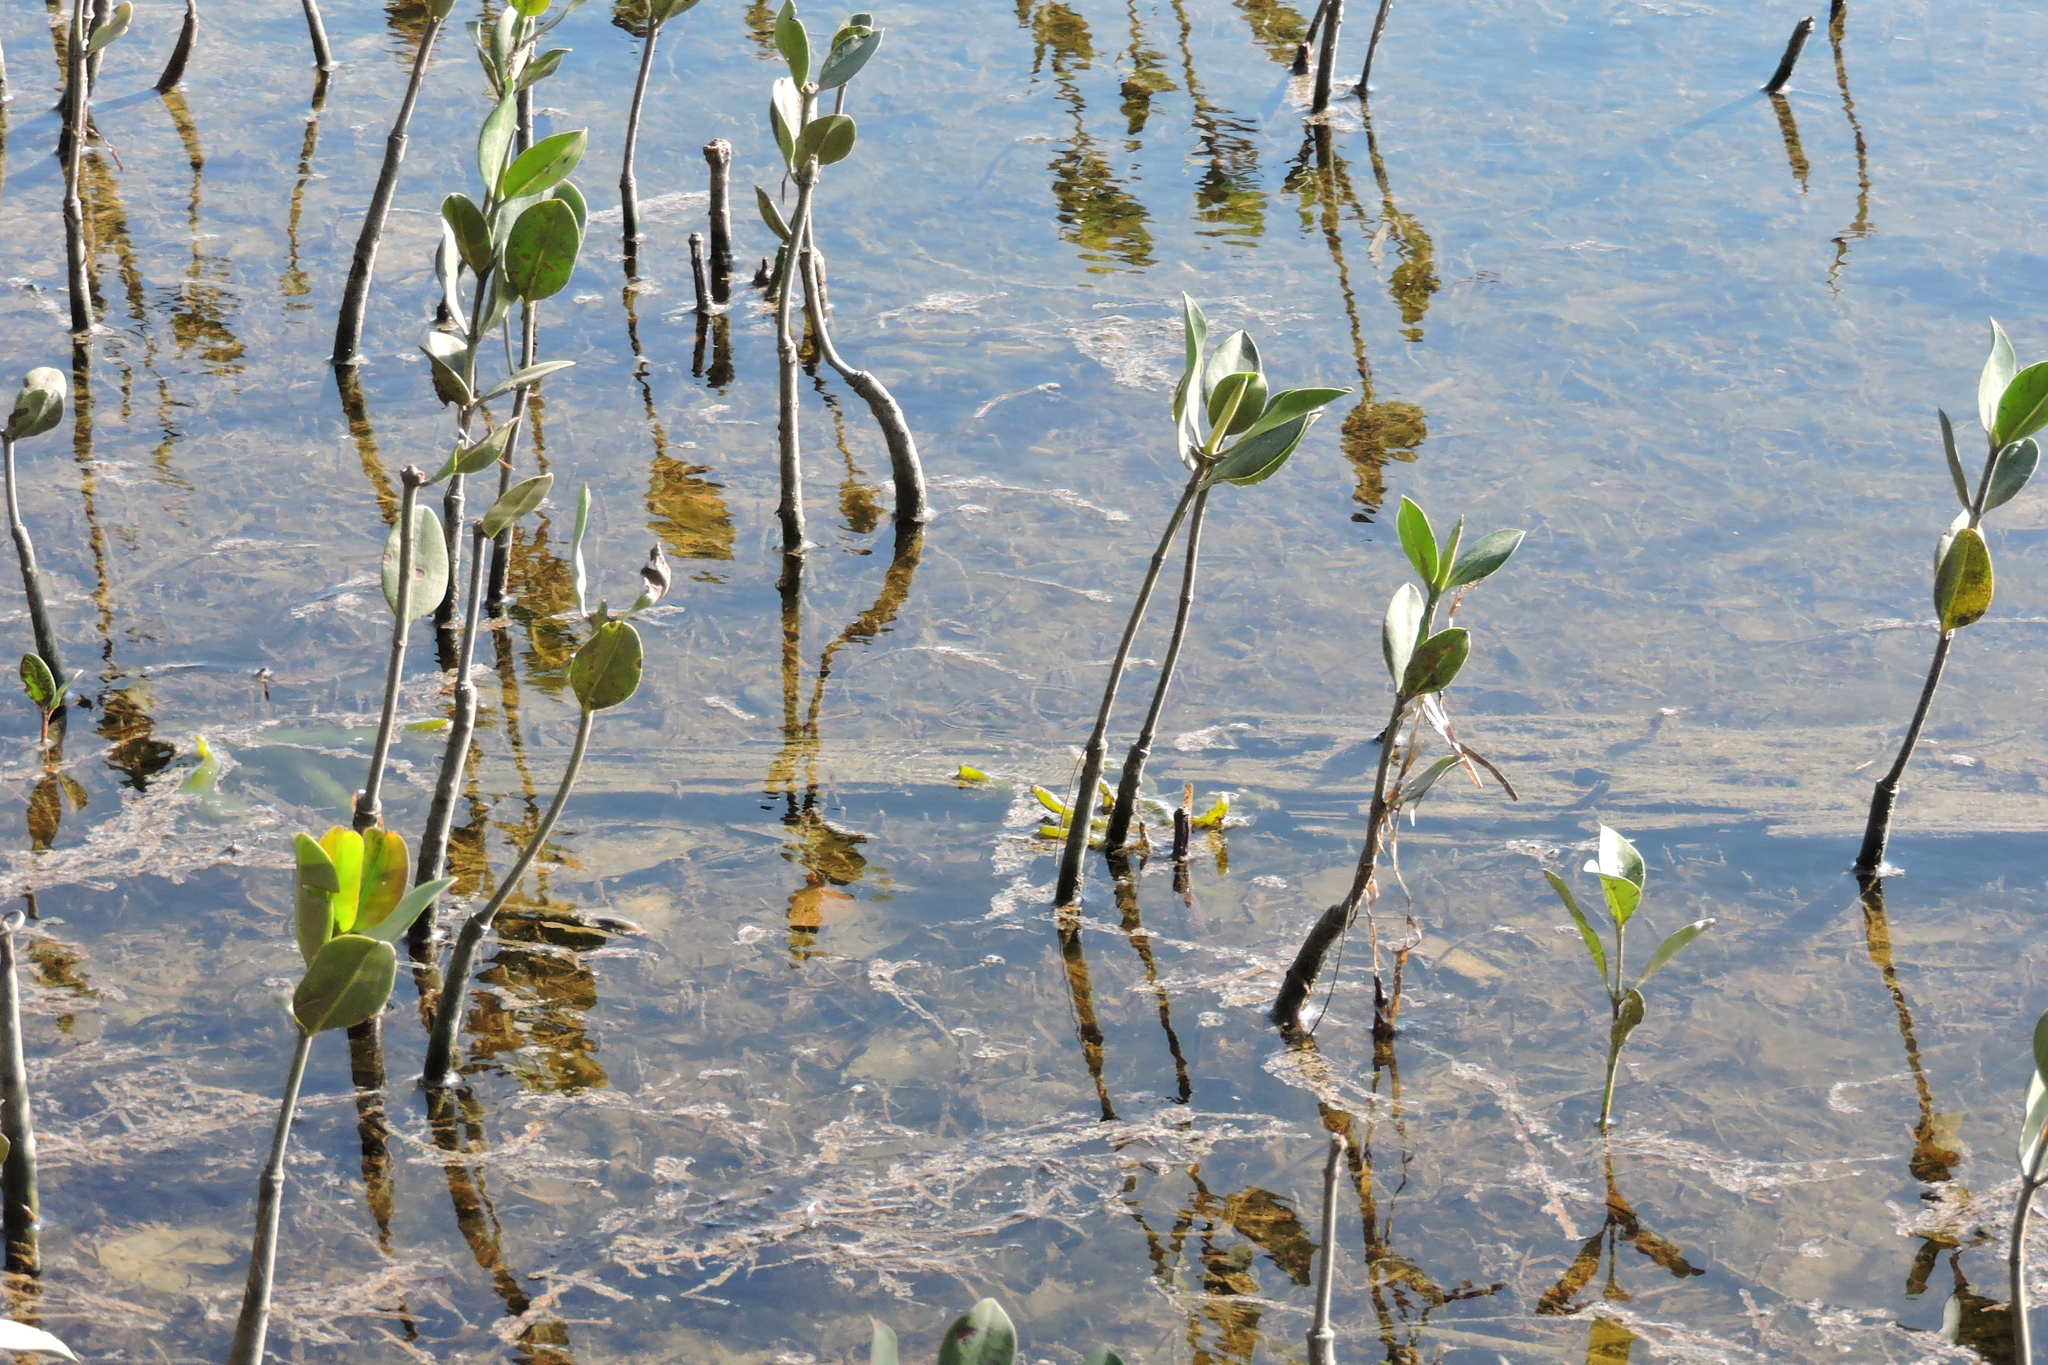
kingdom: Plantae
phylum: Tracheophyta
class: Magnoliopsida
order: Malpighiales
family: Rhizophoraceae
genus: Rhizophora
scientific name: Rhizophora stylosa
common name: Red mangrove
